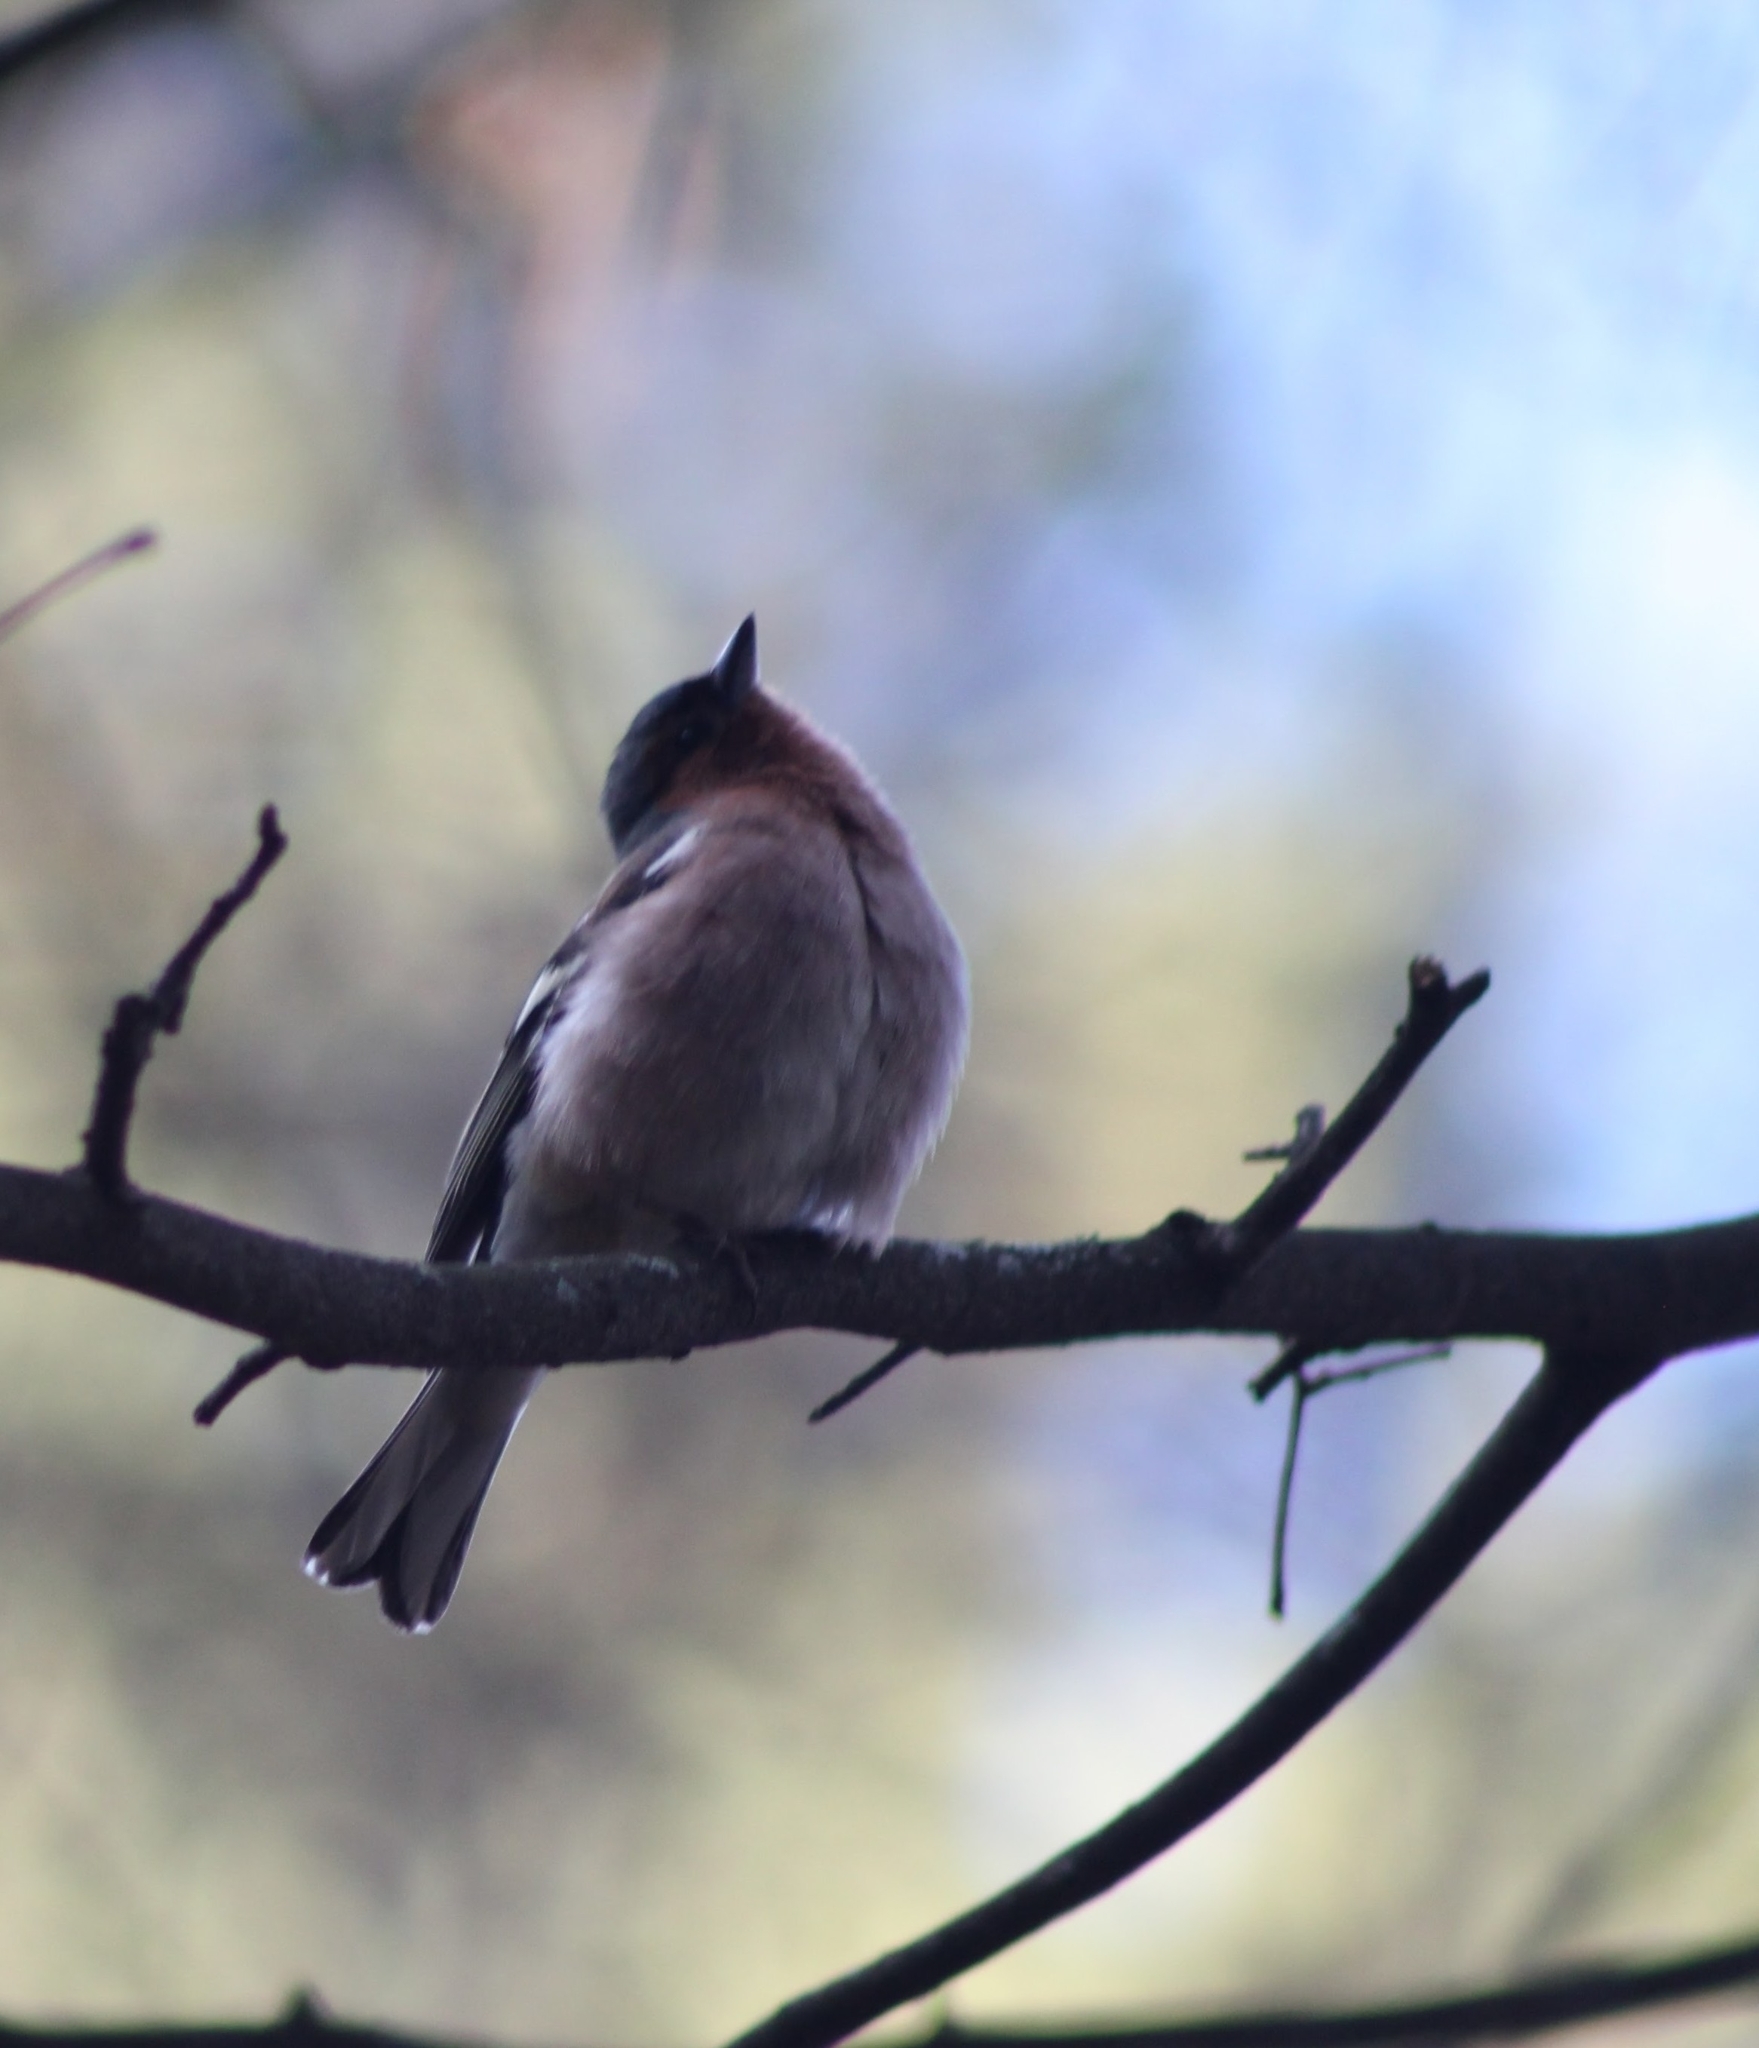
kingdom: Animalia
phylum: Chordata
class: Aves
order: Passeriformes
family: Fringillidae
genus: Fringilla
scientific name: Fringilla coelebs
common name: Common chaffinch
